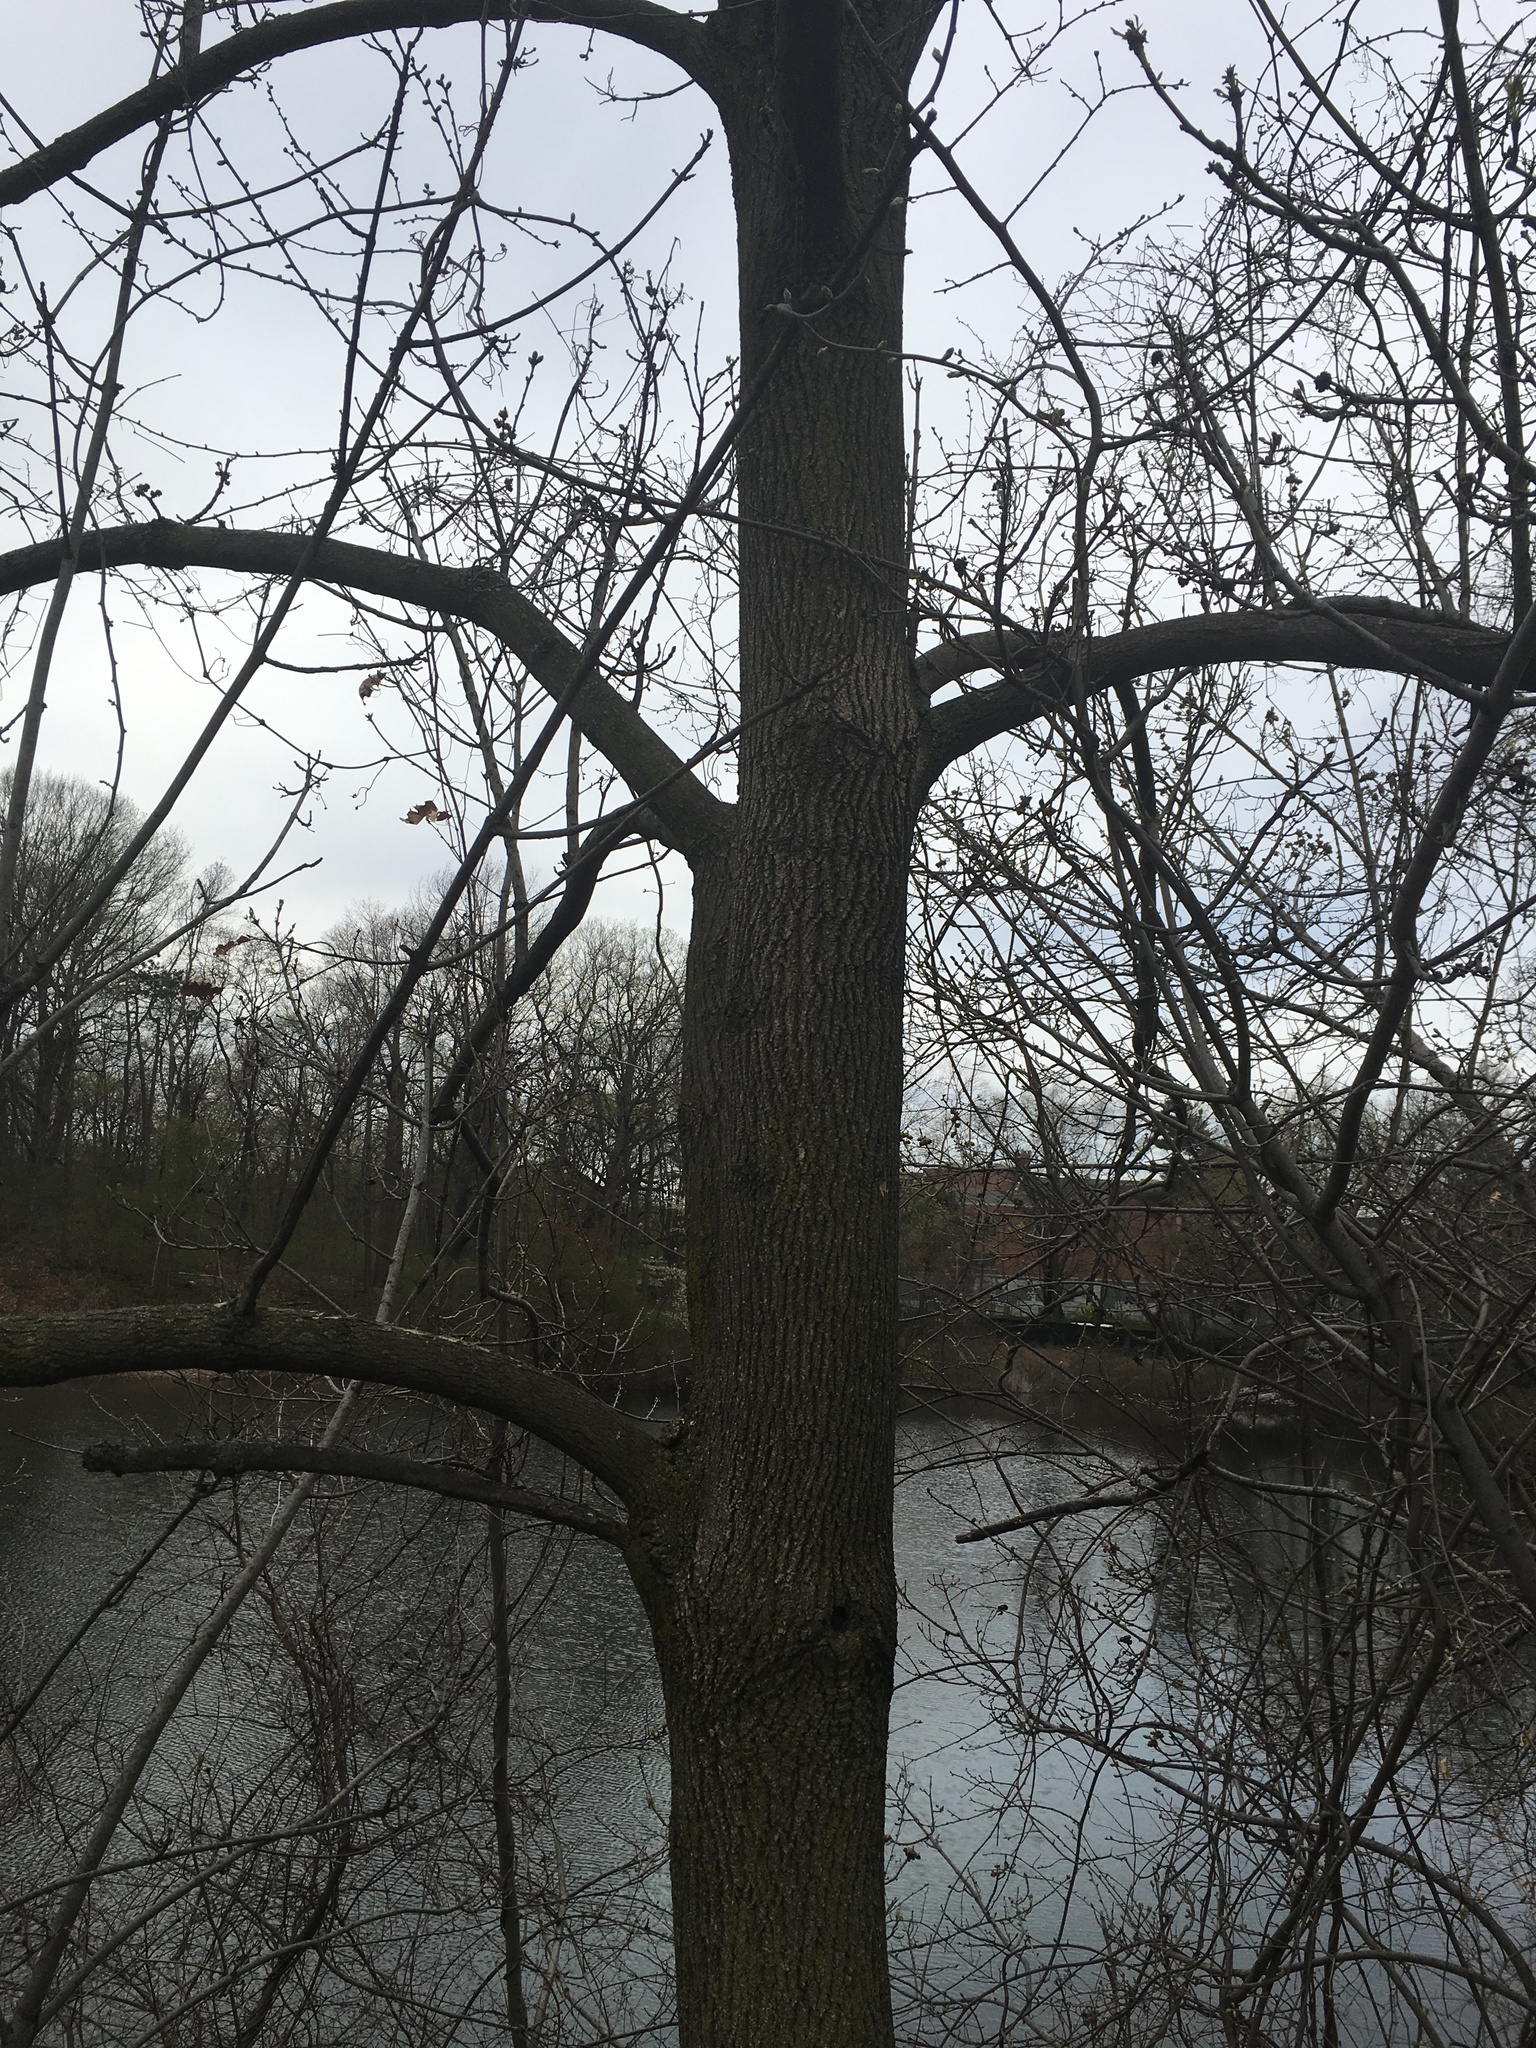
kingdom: Plantae
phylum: Tracheophyta
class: Magnoliopsida
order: Lamiales
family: Oleaceae
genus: Fraxinus
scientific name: Fraxinus pennsylvanica
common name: Green ash
